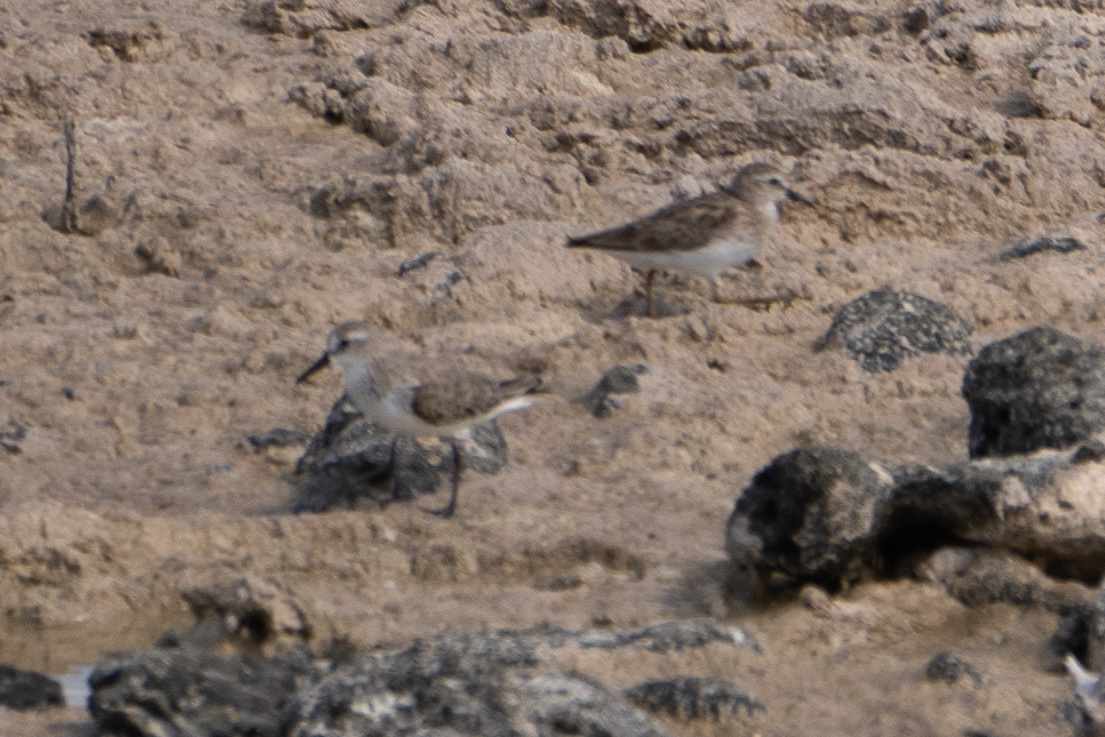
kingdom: Animalia
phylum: Chordata
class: Aves
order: Charadriiformes
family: Scolopacidae
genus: Calidris
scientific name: Calidris pusilla
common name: Semipalmated sandpiper
